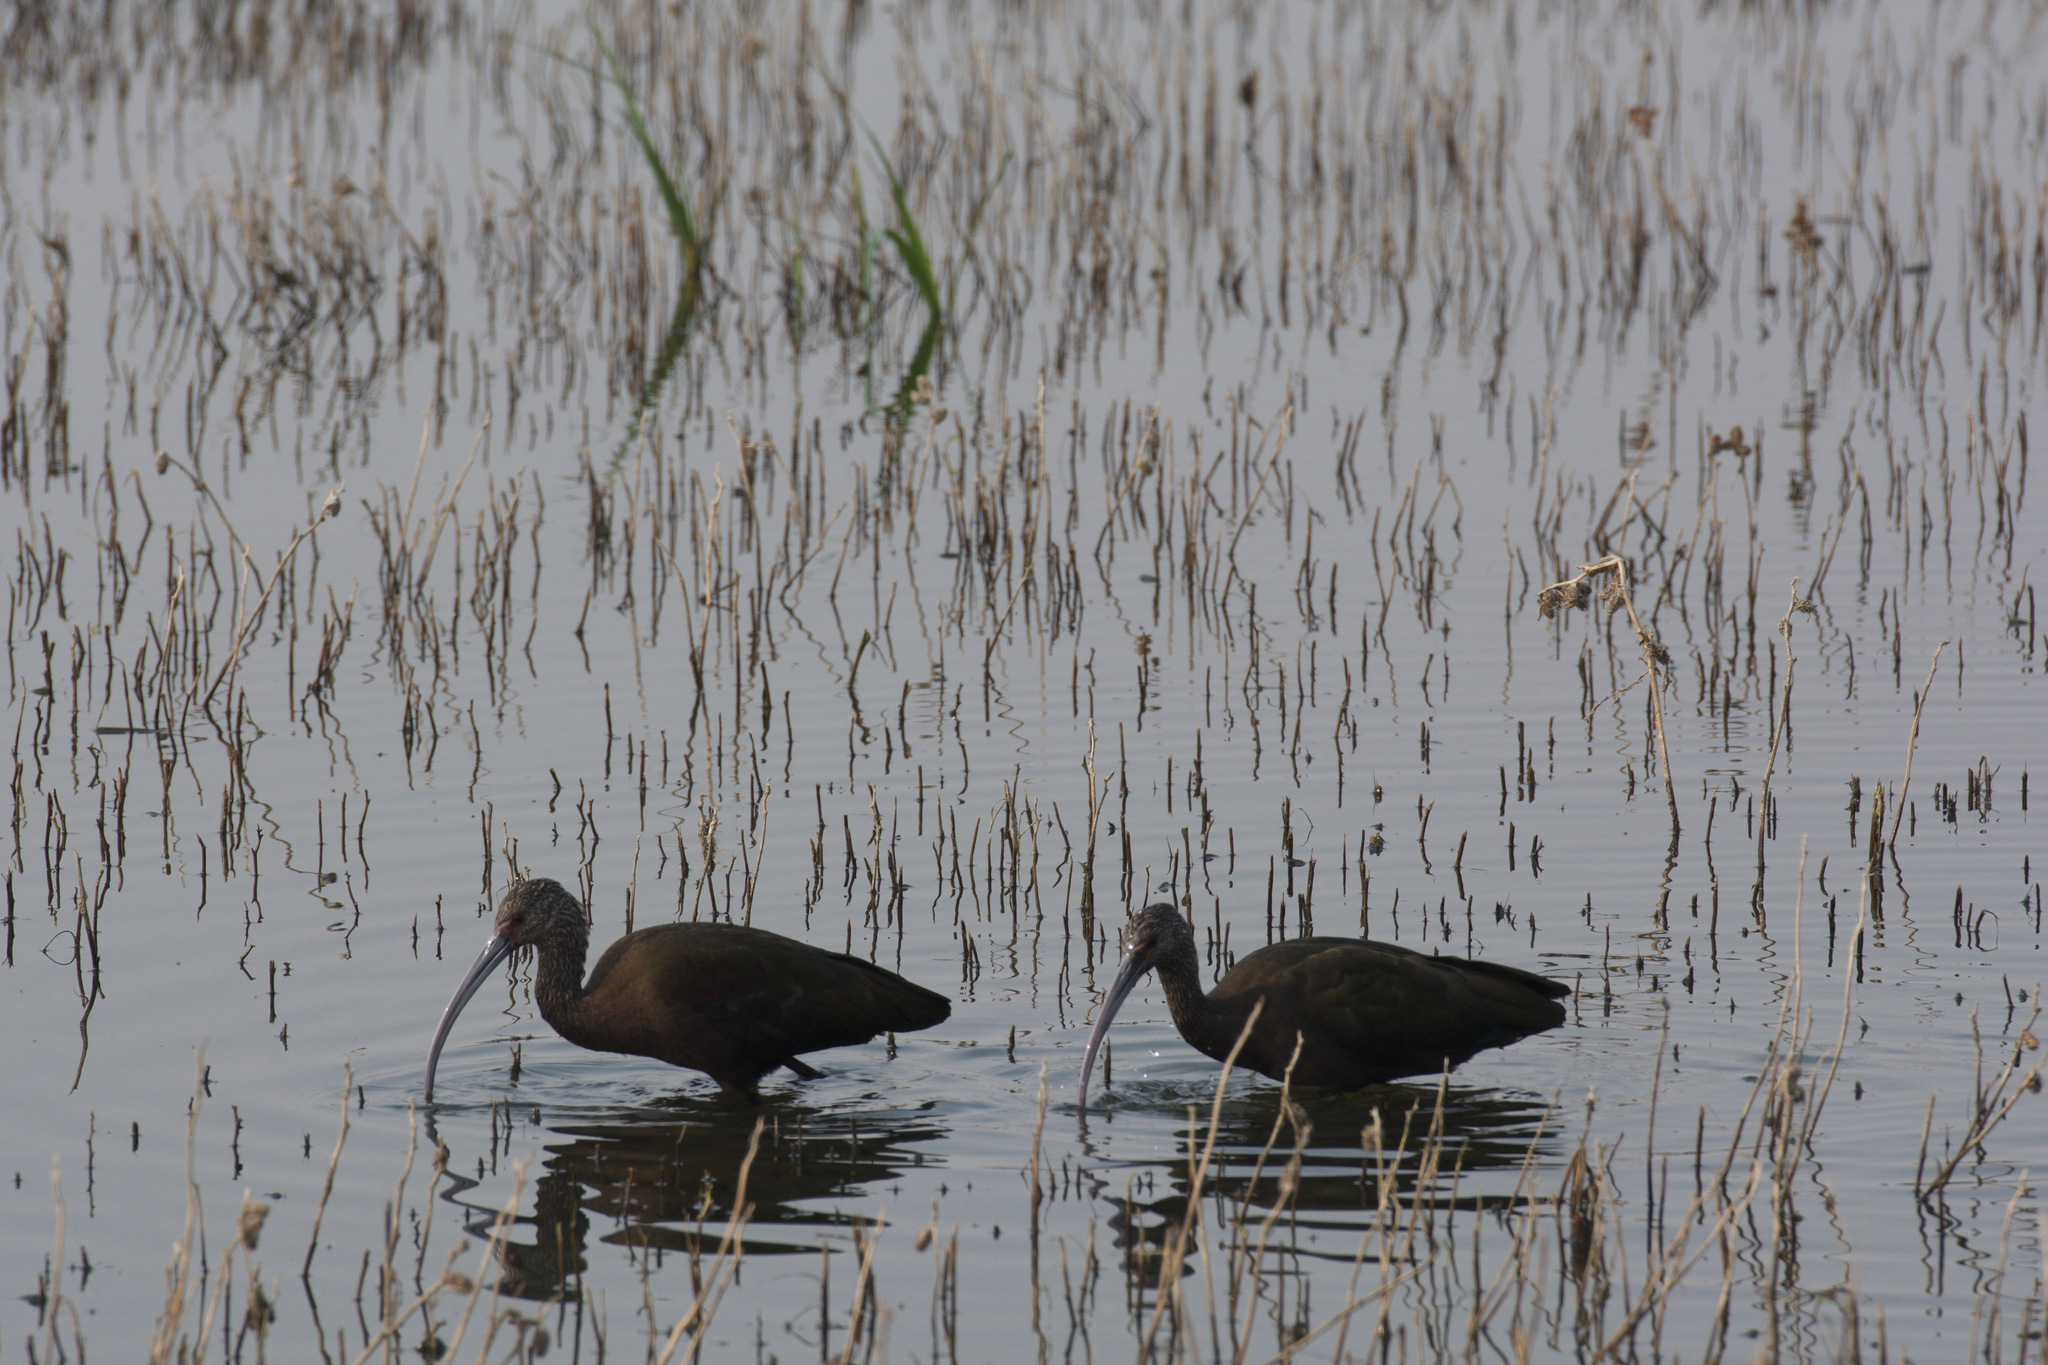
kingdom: Animalia
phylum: Chordata
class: Aves
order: Pelecaniformes
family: Threskiornithidae
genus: Plegadis
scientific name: Plegadis chihi
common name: White-faced ibis
